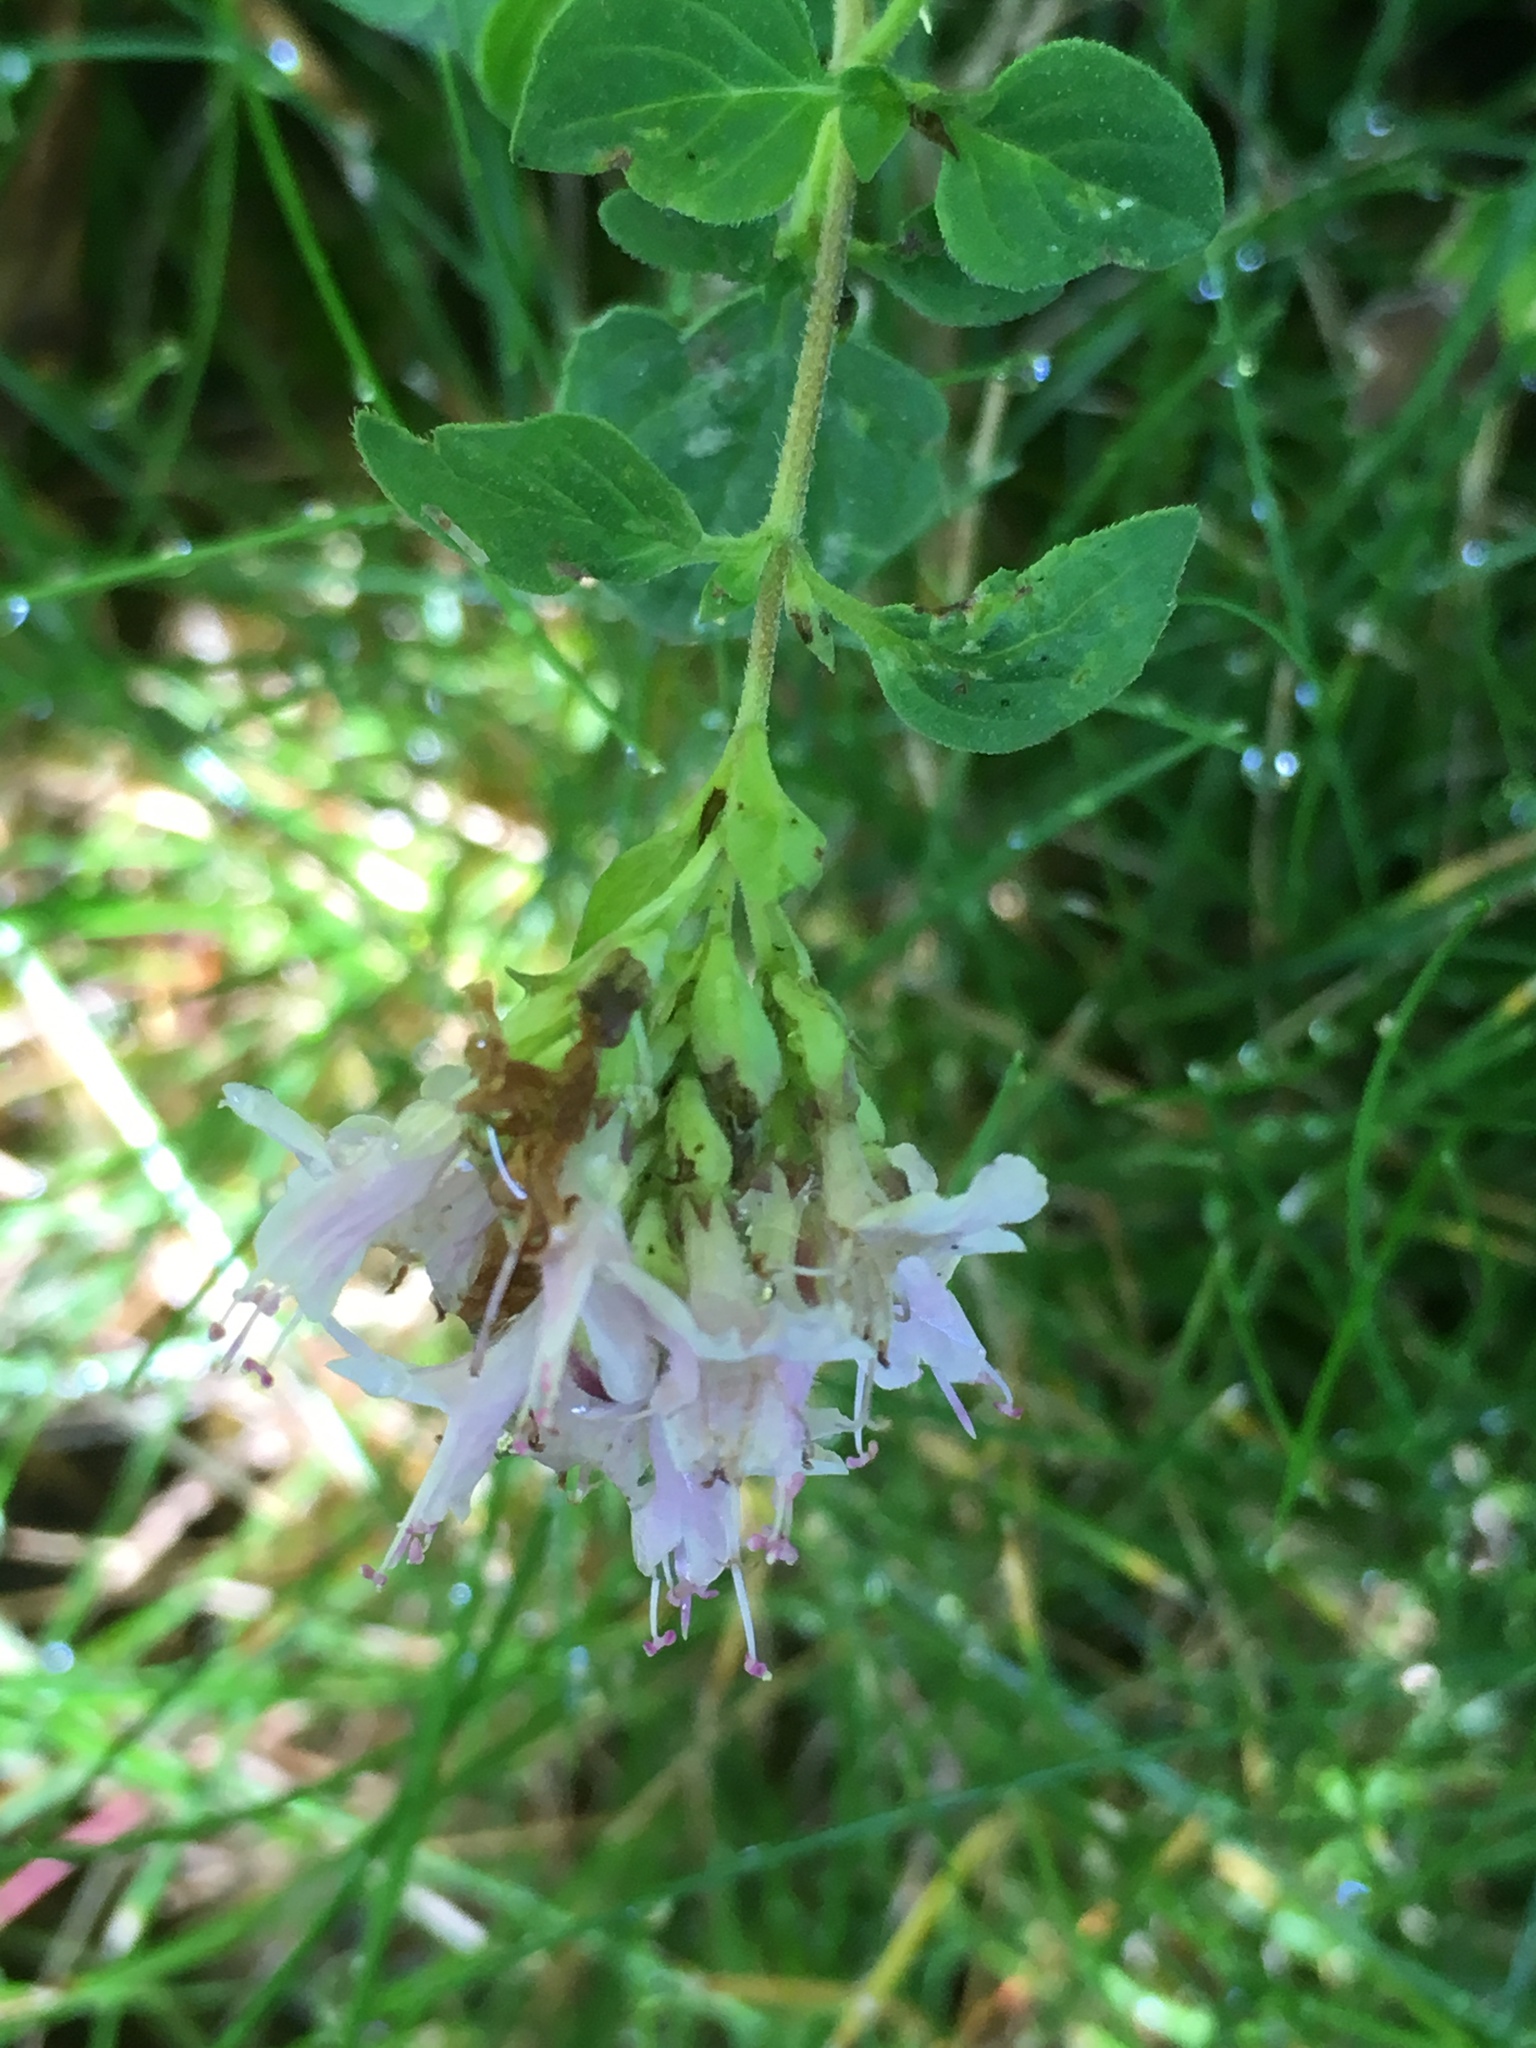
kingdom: Plantae
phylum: Tracheophyta
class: Magnoliopsida
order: Lamiales
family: Lamiaceae
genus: Origanum
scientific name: Origanum vulgare
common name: Wild marjoram
